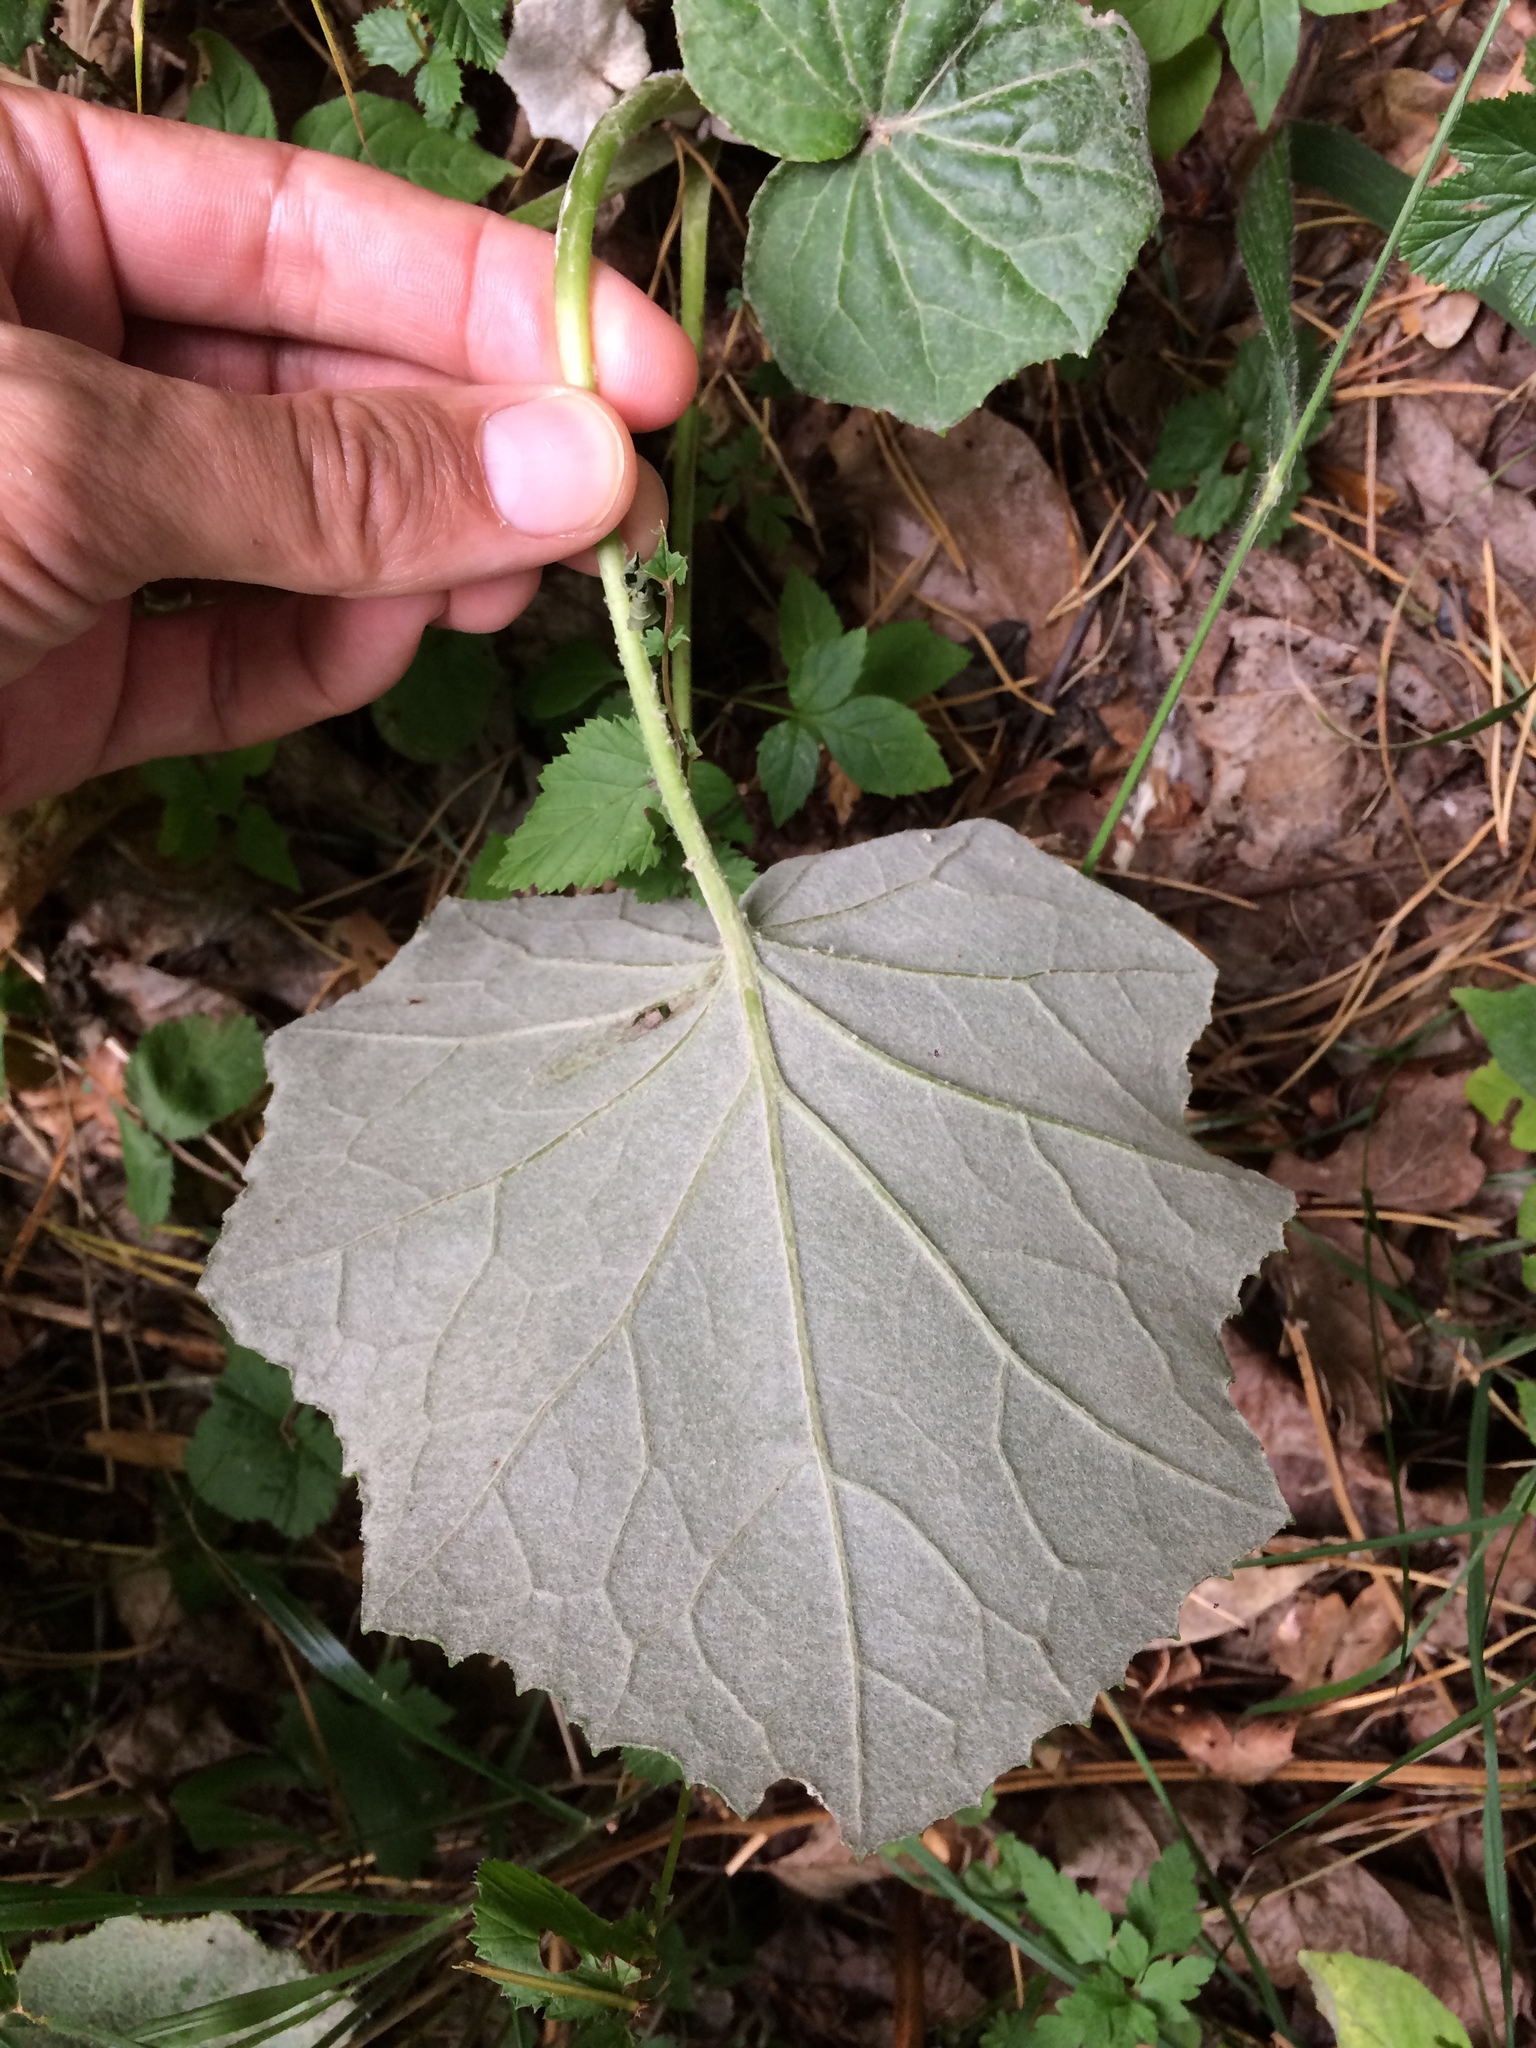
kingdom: Plantae
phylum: Tracheophyta
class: Magnoliopsida
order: Asterales
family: Asteraceae
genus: Tussilago
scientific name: Tussilago farfara
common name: Coltsfoot
